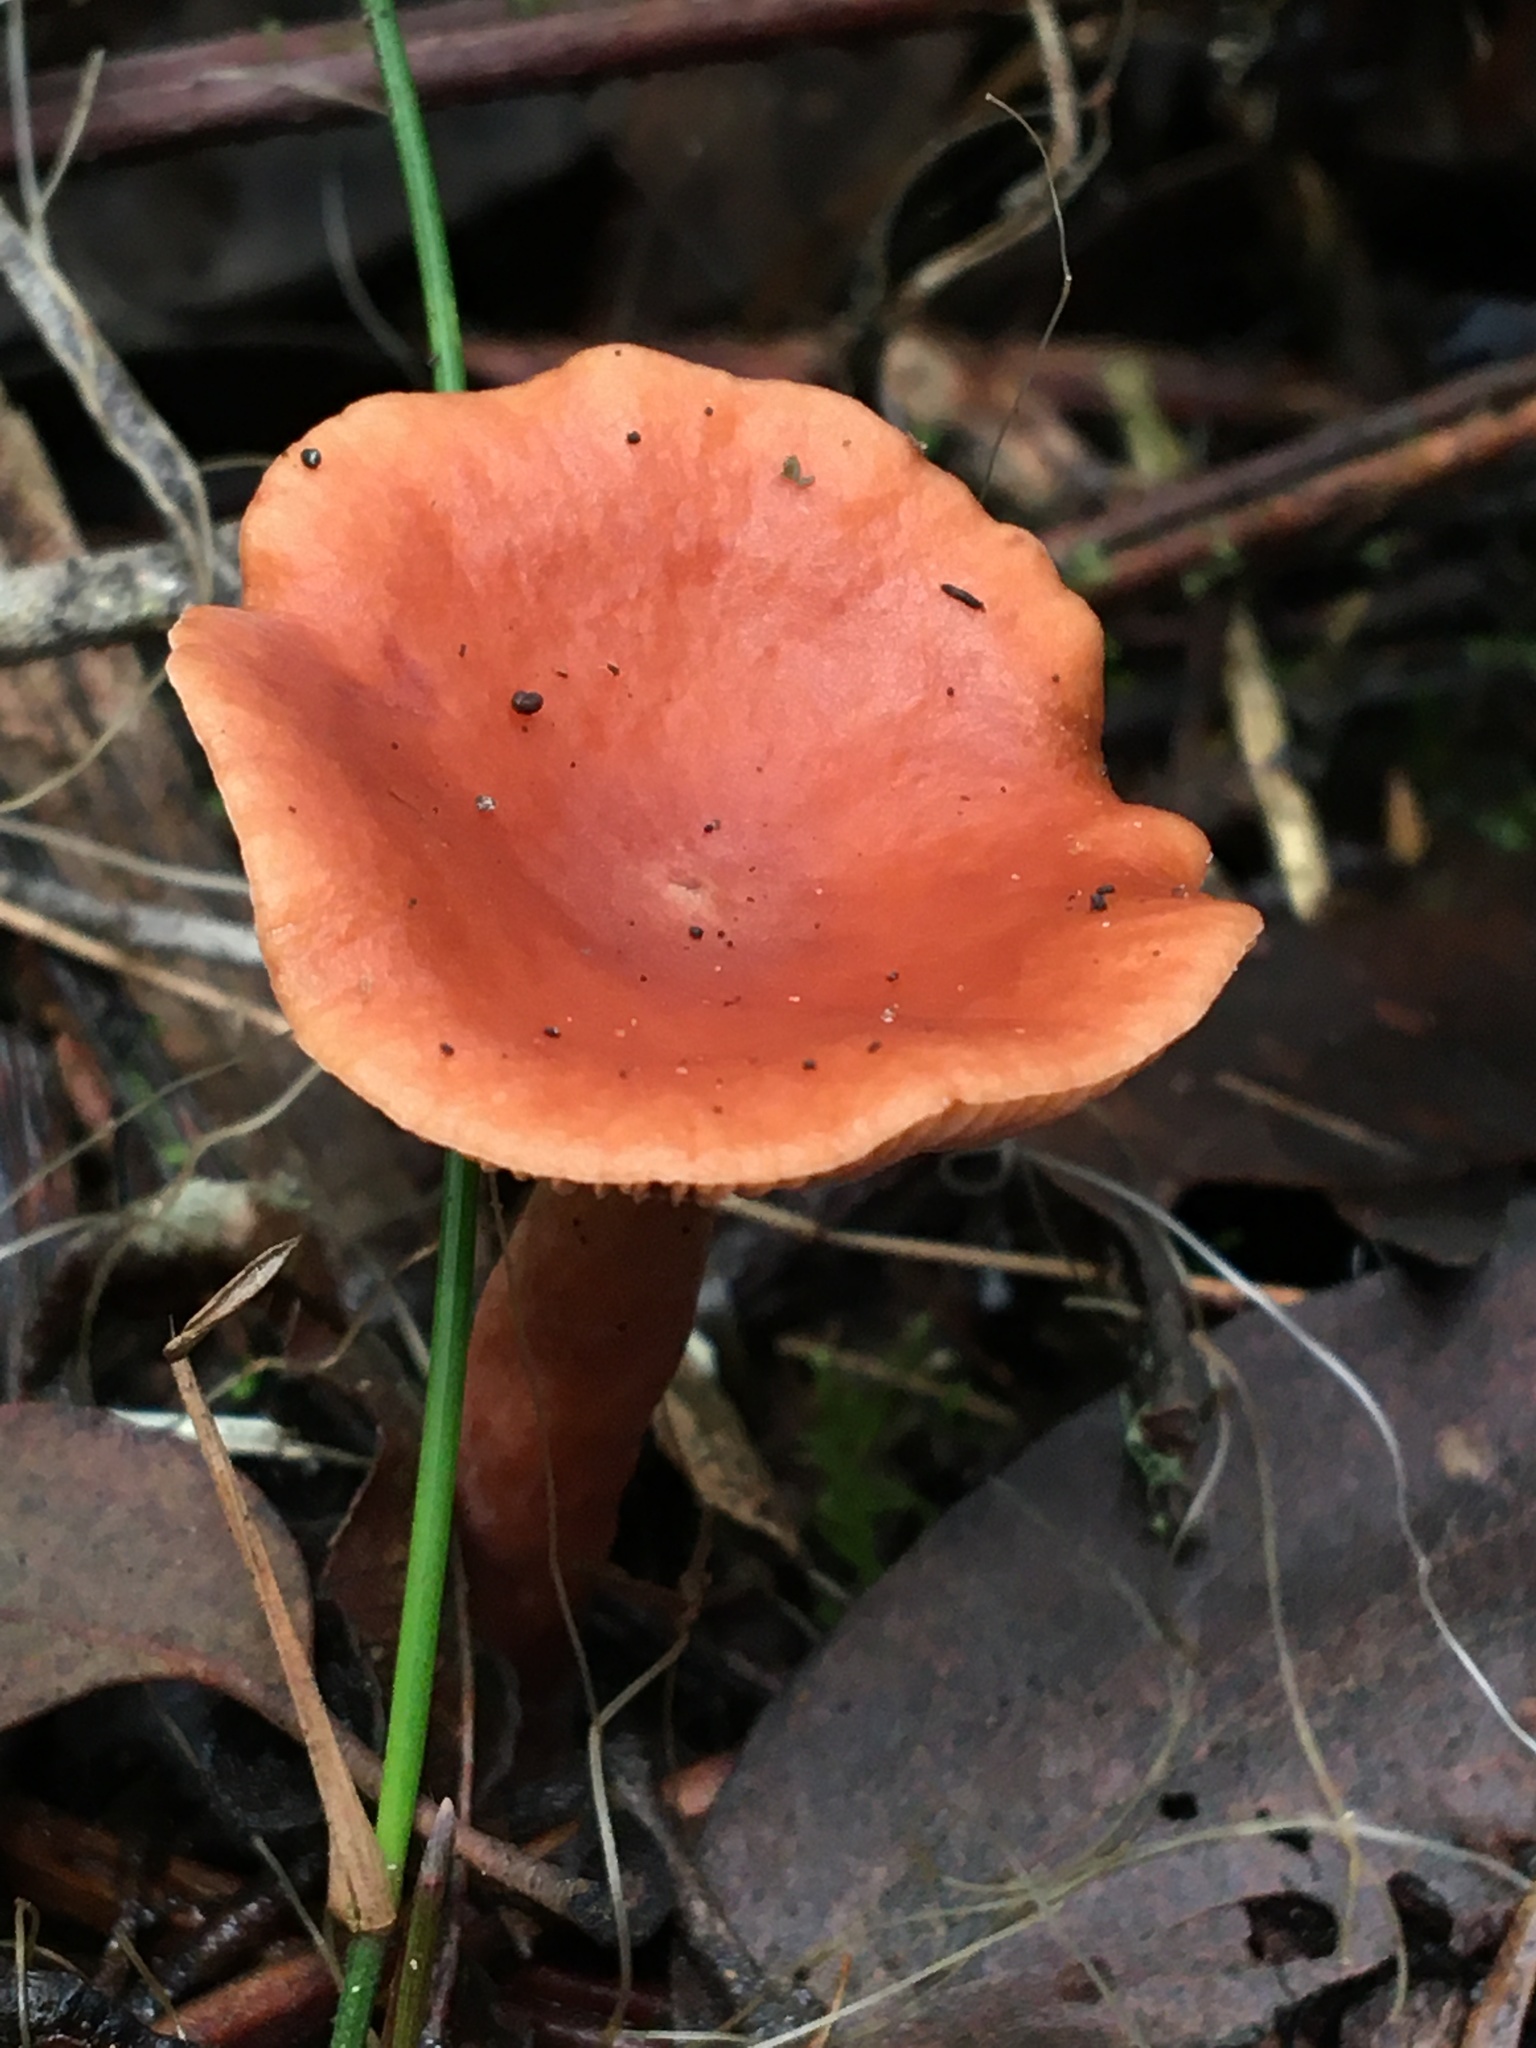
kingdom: Fungi
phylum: Basidiomycota
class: Agaricomycetes
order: Russulales
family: Russulaceae
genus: Lactarius
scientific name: Lactarius eucalypti
